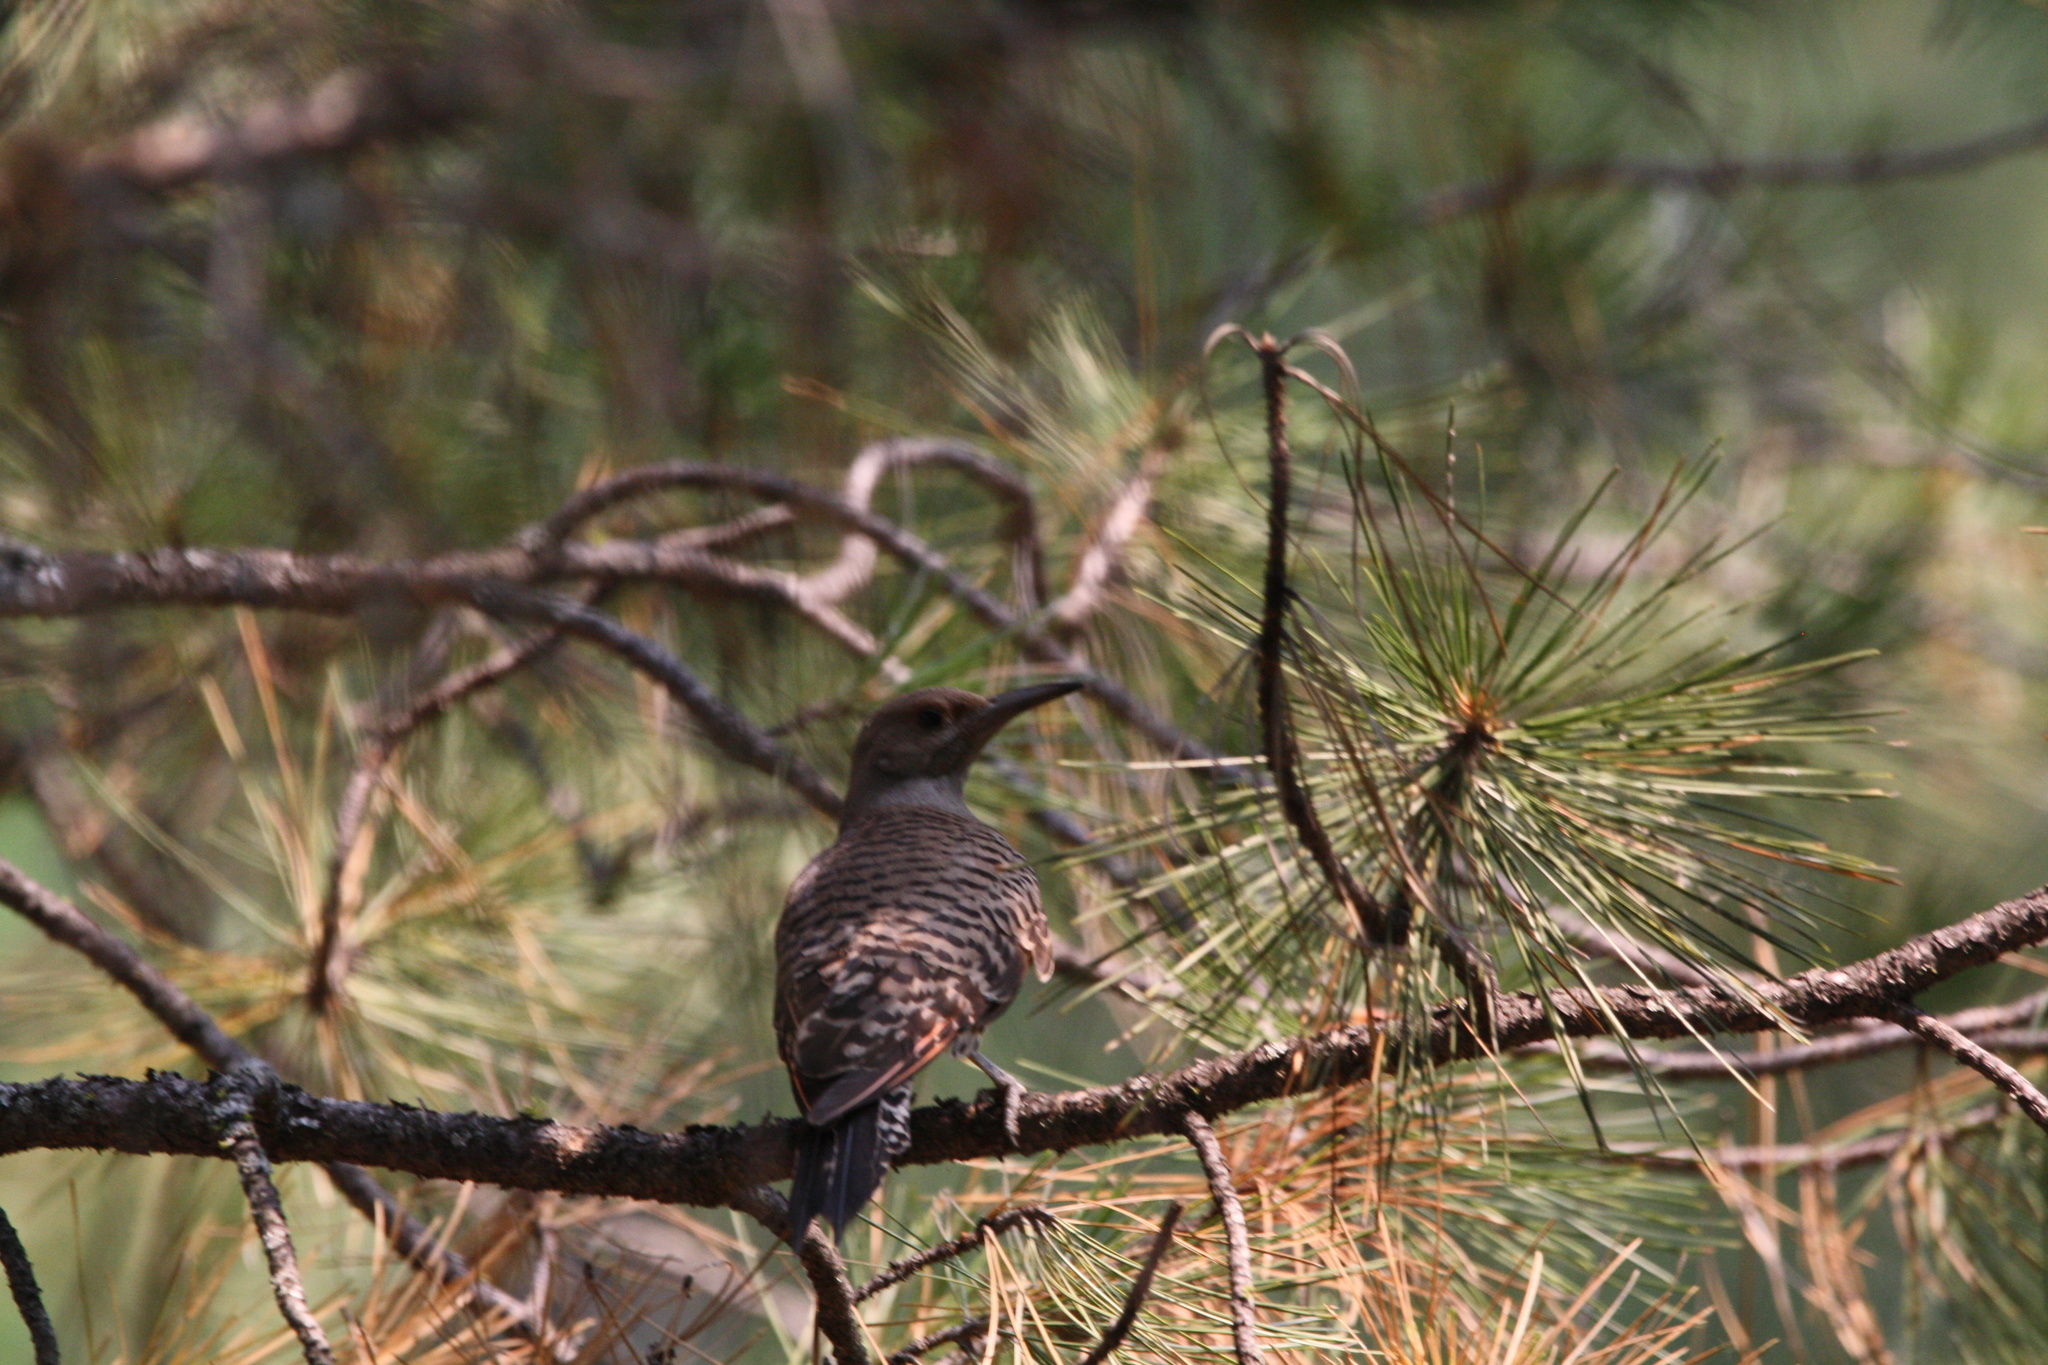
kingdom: Animalia
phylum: Chordata
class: Aves
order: Piciformes
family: Picidae
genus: Colaptes
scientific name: Colaptes auratus
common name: Northern flicker
